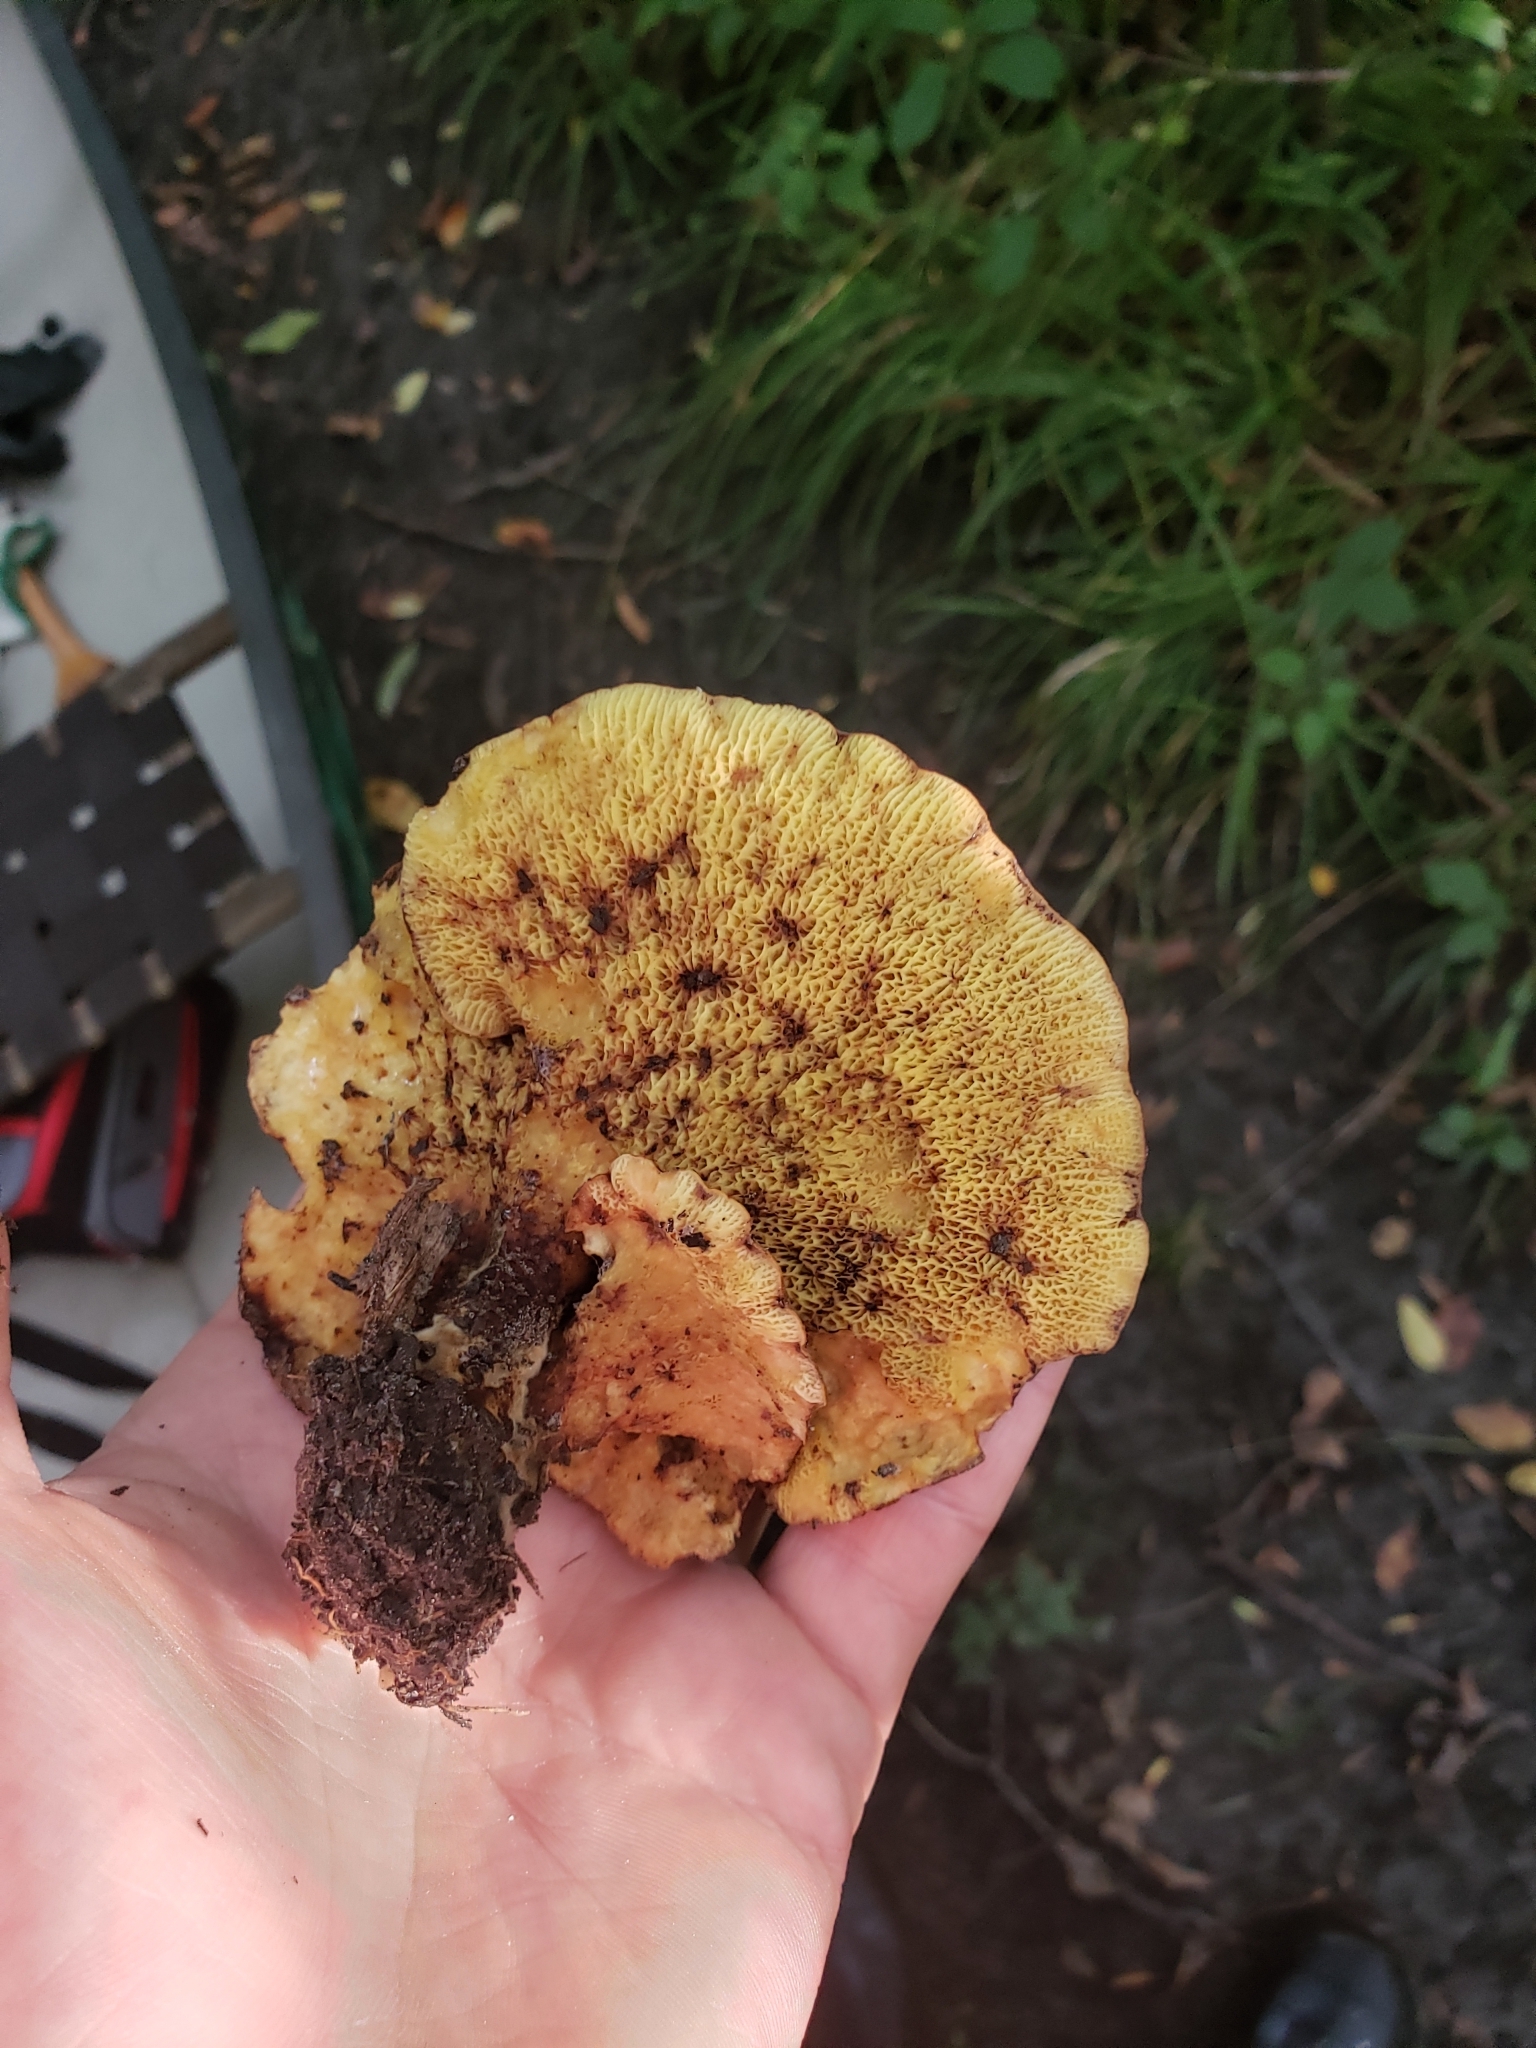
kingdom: Fungi
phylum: Basidiomycota
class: Agaricomycetes
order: Boletales
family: Boletinellaceae
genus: Boletinellus
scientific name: Boletinellus merulioides
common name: Ash tree bolete
